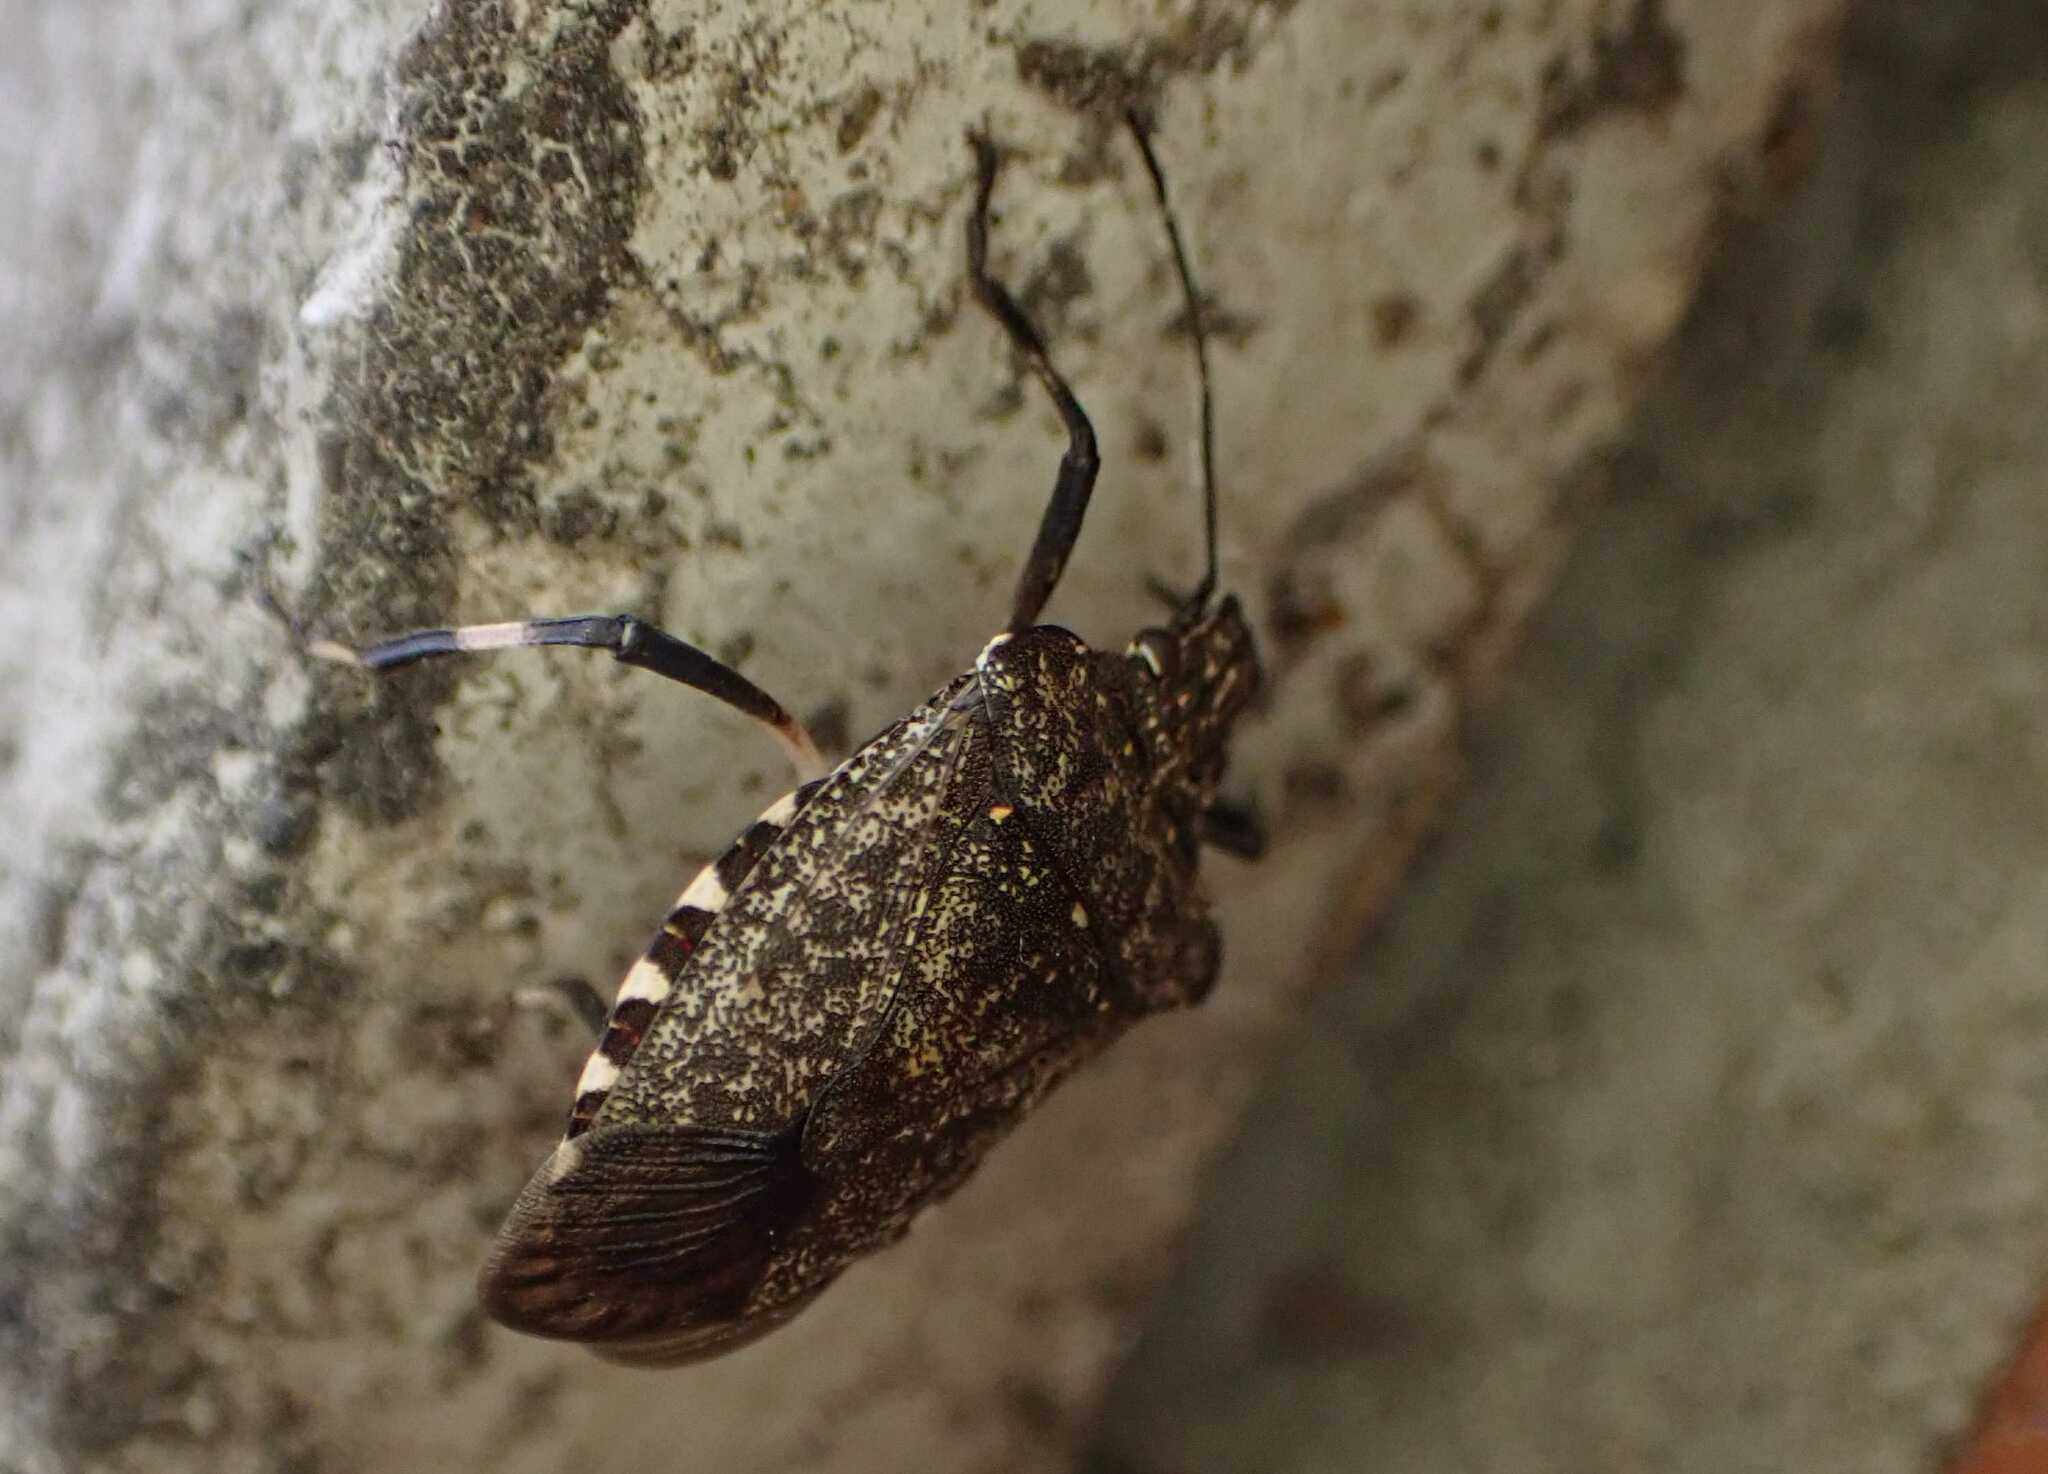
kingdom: Animalia
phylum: Arthropoda
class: Insecta
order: Hemiptera
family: Pentatomidae
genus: Halyomorpha
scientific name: Halyomorpha halys
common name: Brown marmorated stink bug
